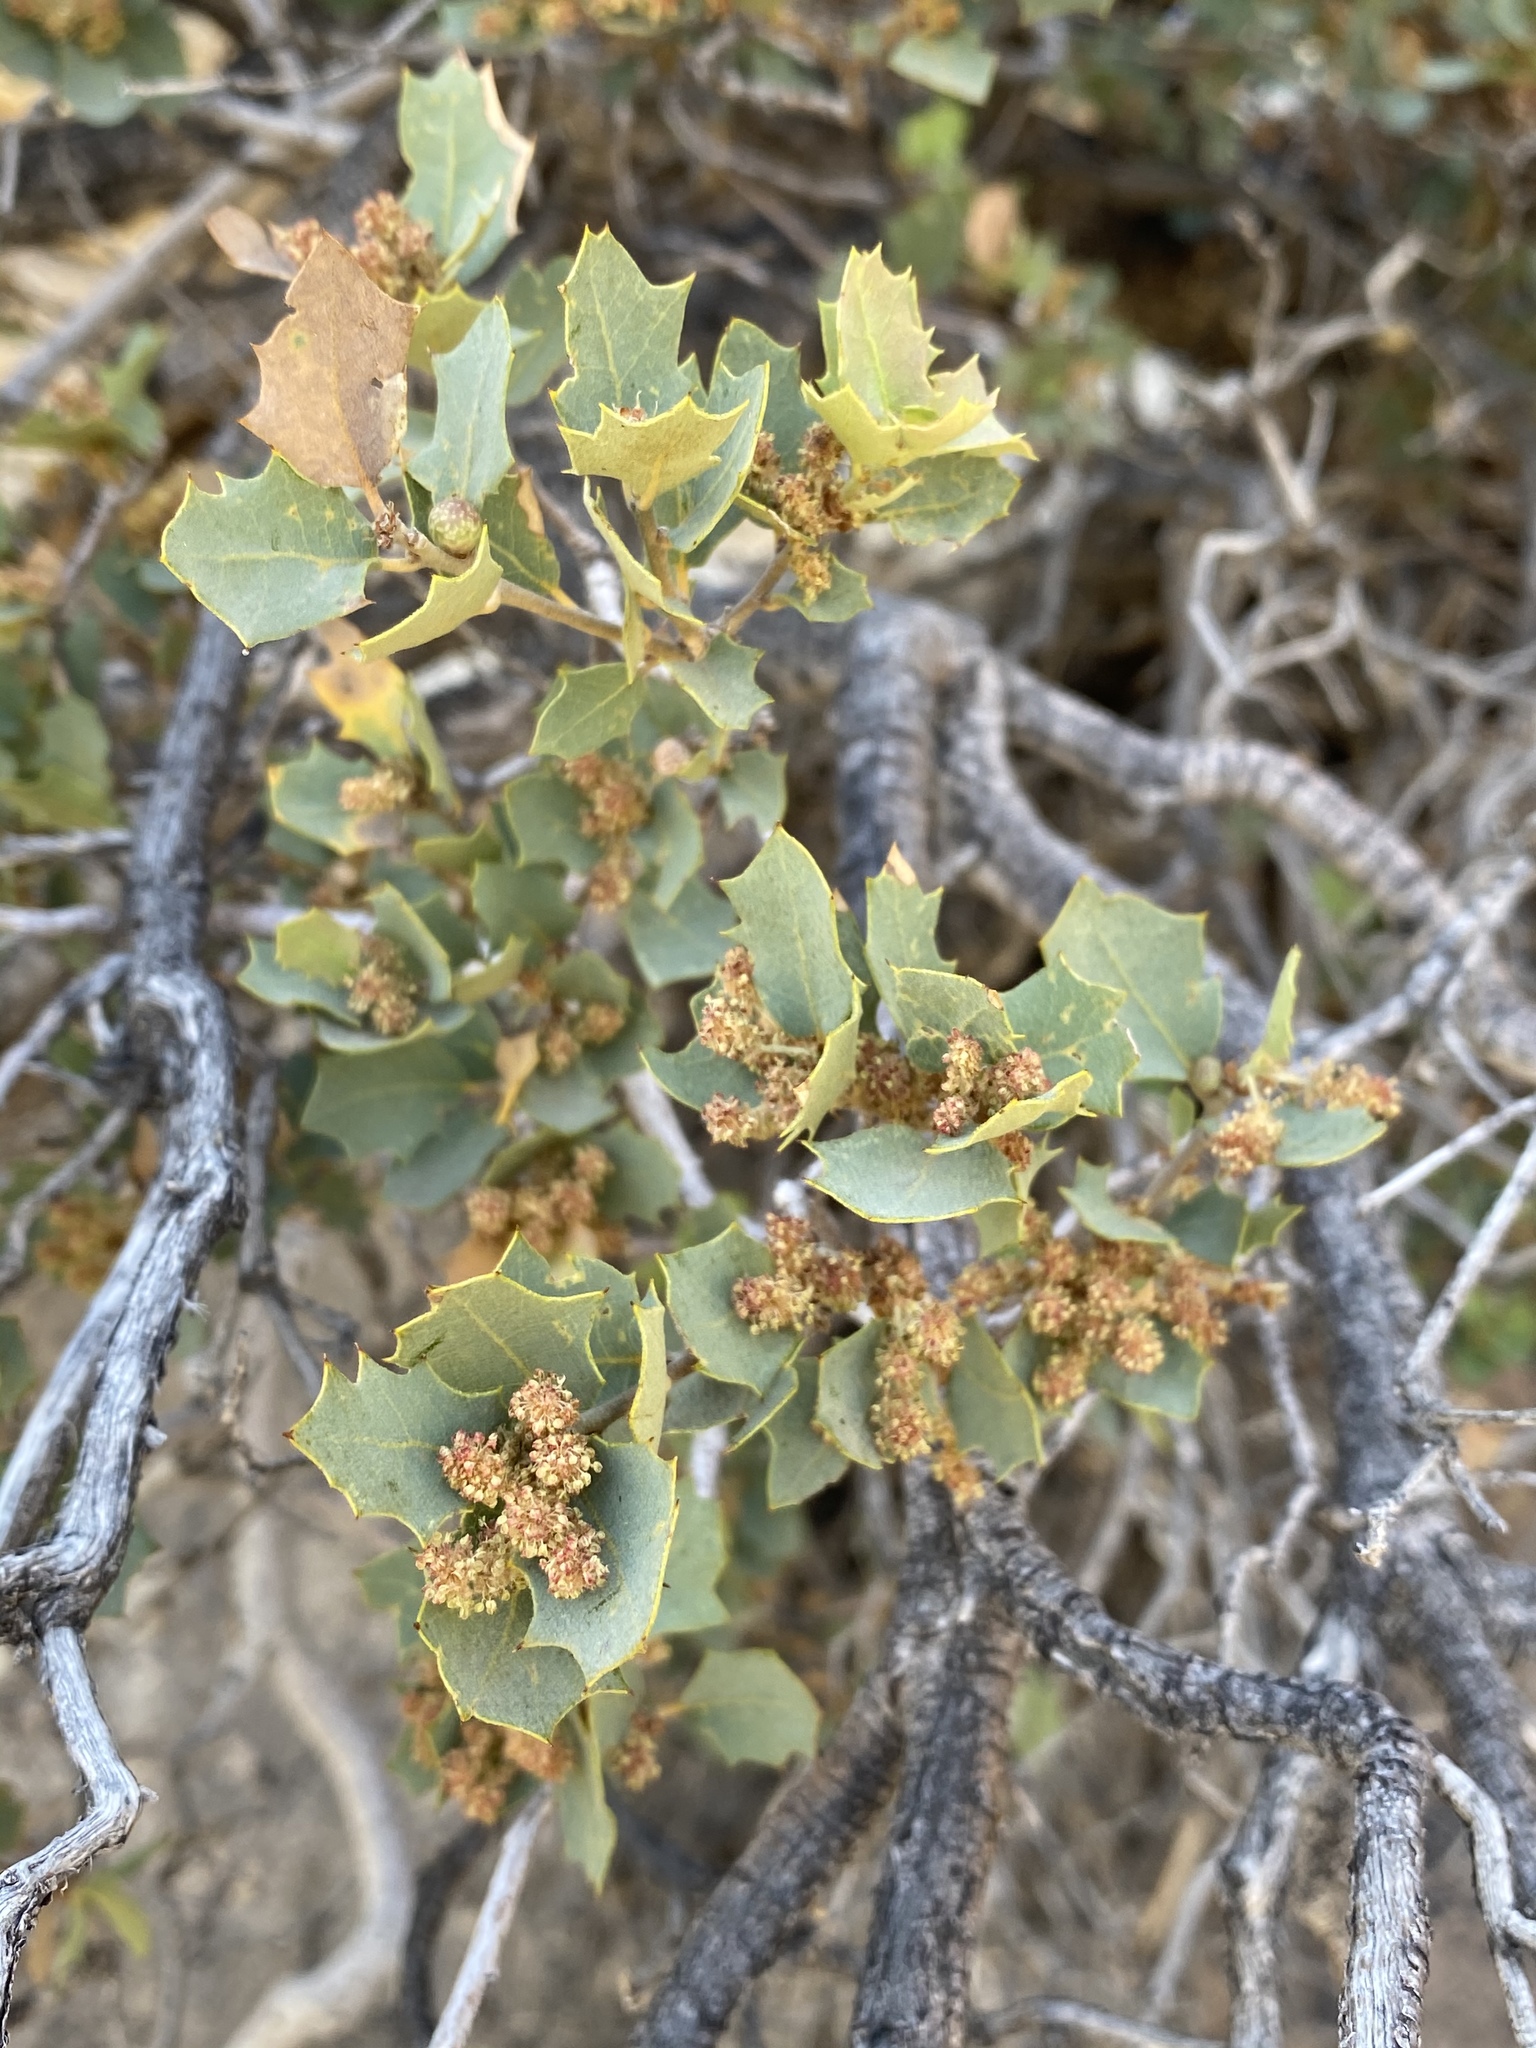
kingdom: Plantae
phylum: Tracheophyta
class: Magnoliopsida
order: Fagales
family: Fagaceae
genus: Quercus
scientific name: Quercus turbinella
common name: Sonoran scrub oak
